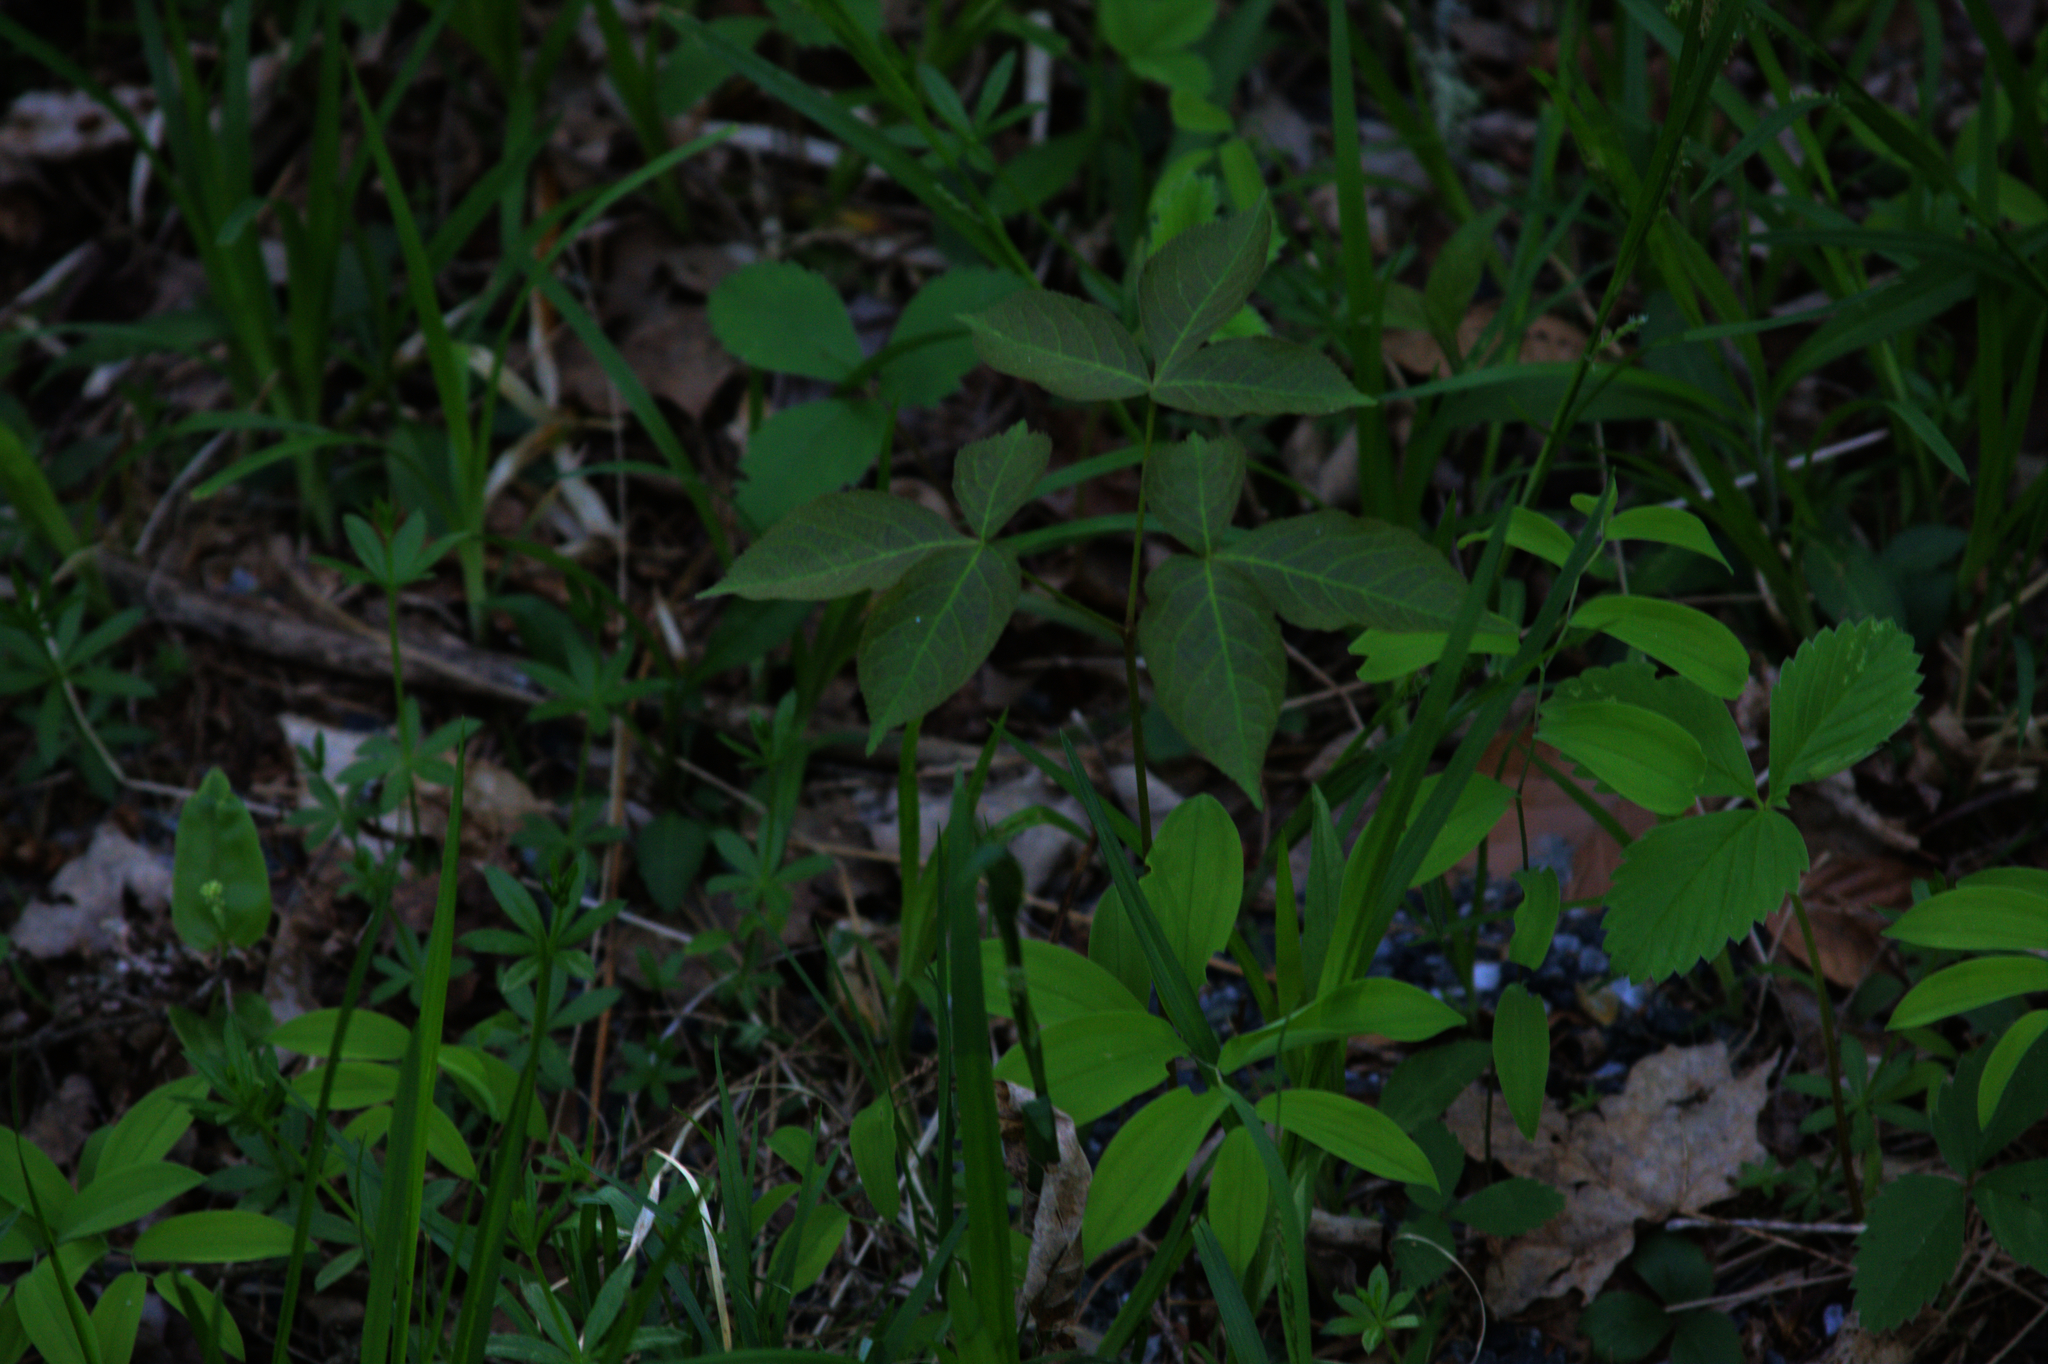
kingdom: Plantae
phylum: Tracheophyta
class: Liliopsida
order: Asparagales
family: Asparagaceae
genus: Maianthemum
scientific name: Maianthemum canadense
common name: False lily-of-the-valley
